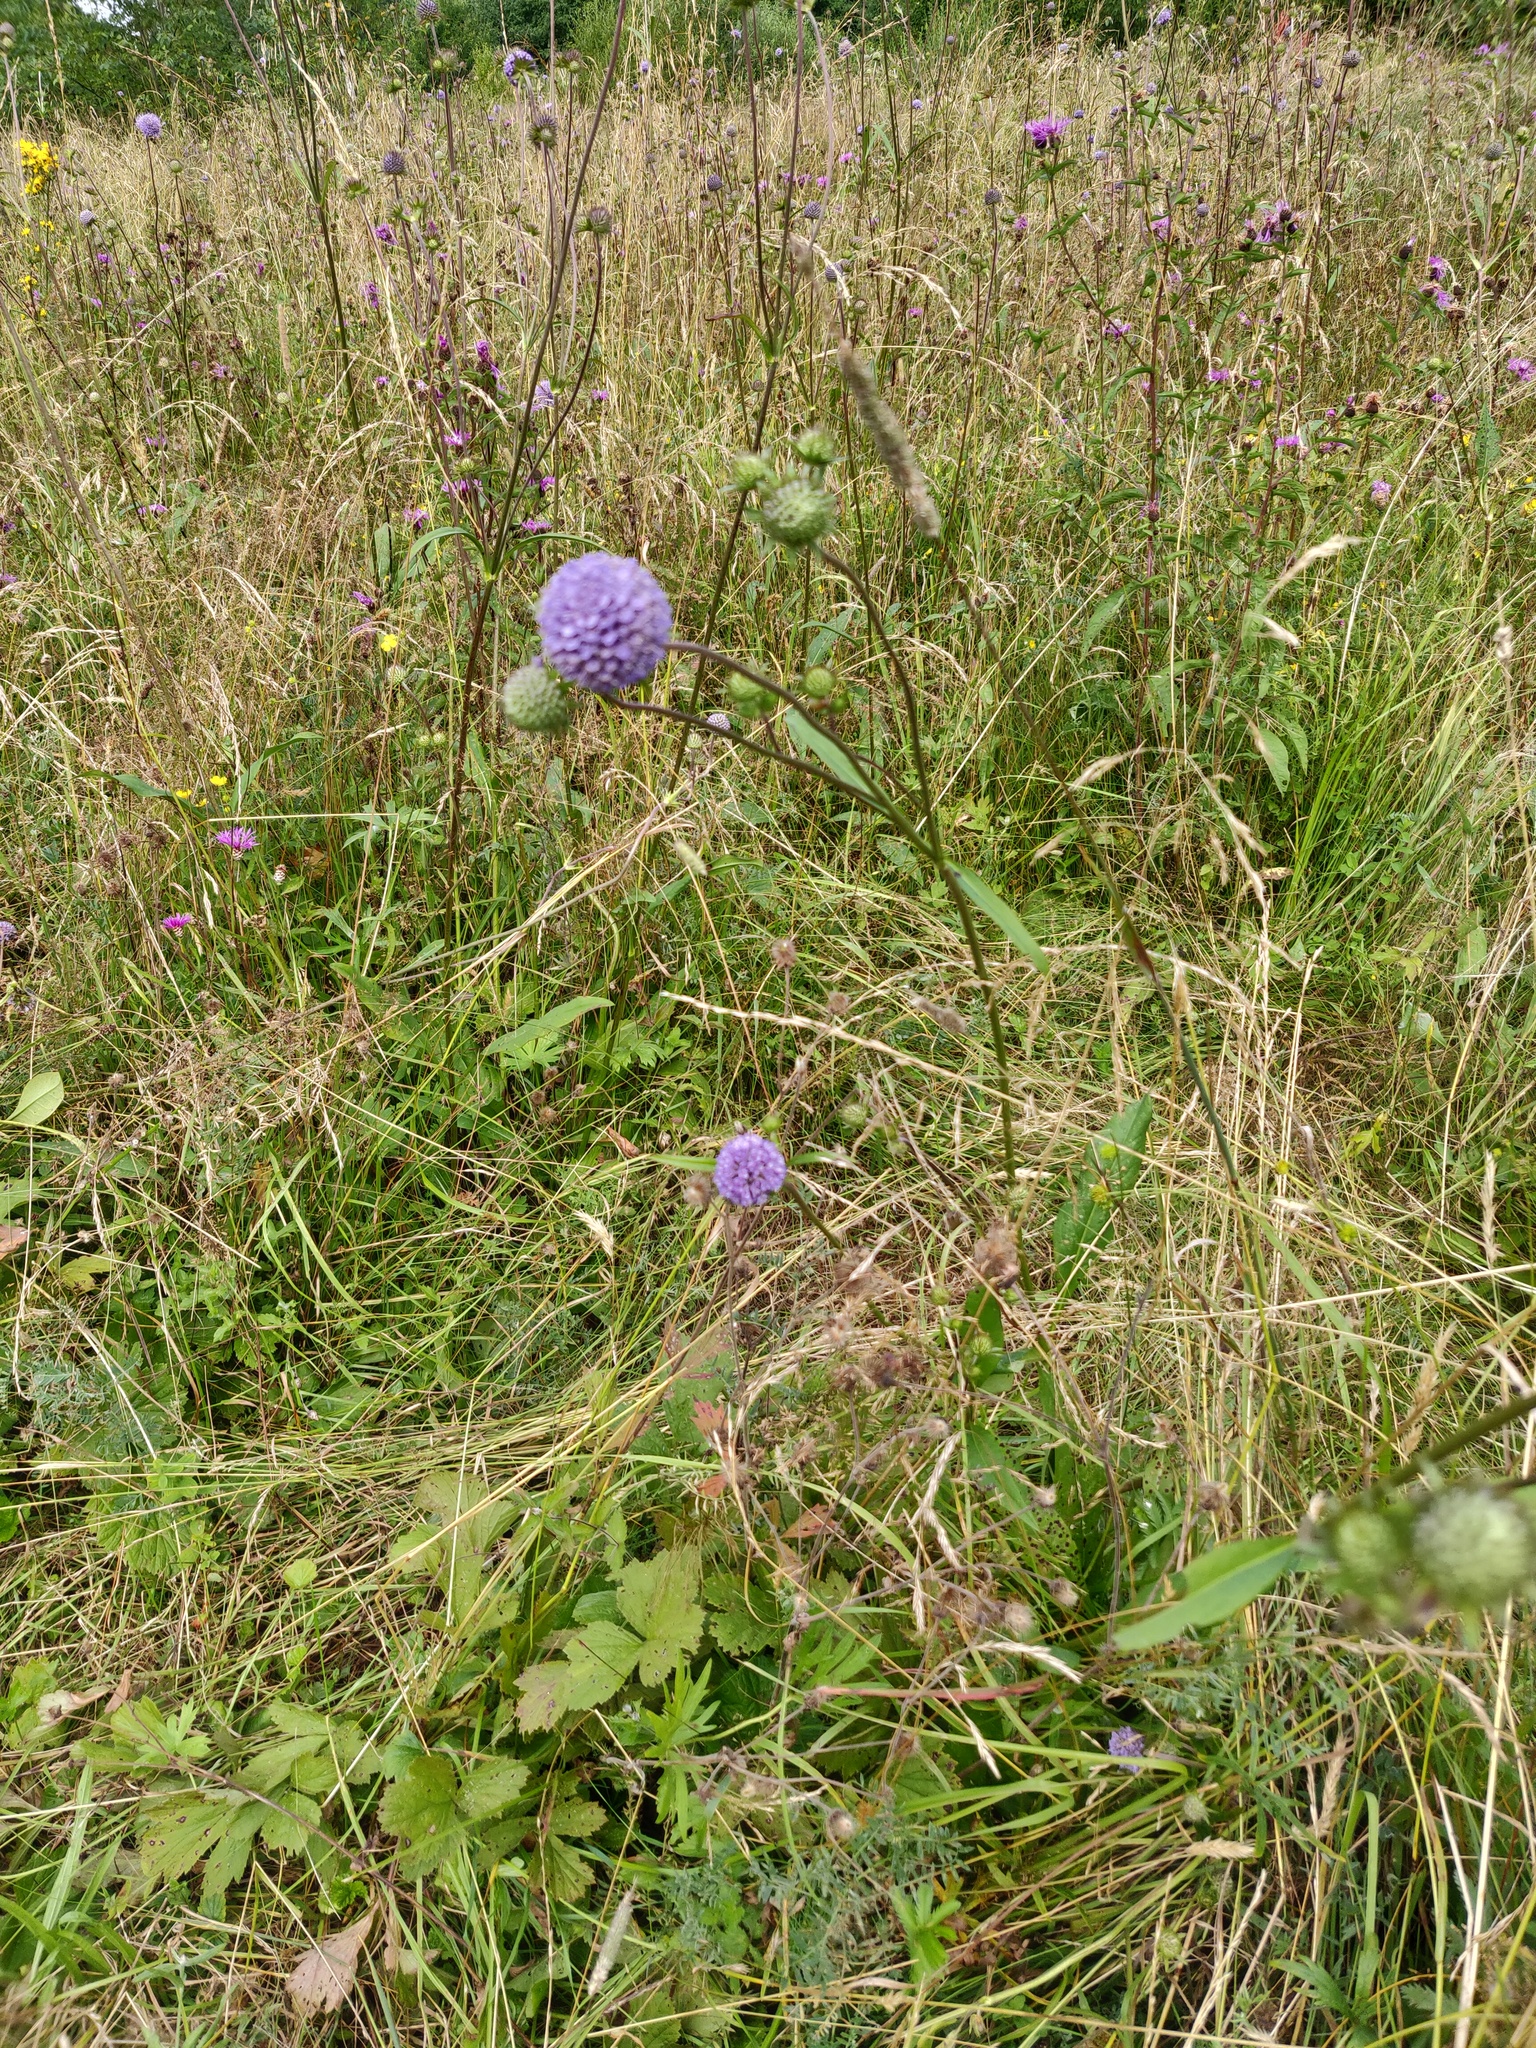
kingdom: Plantae
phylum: Tracheophyta
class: Magnoliopsida
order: Dipsacales
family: Caprifoliaceae
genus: Succisa
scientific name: Succisa pratensis
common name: Devil's-bit
